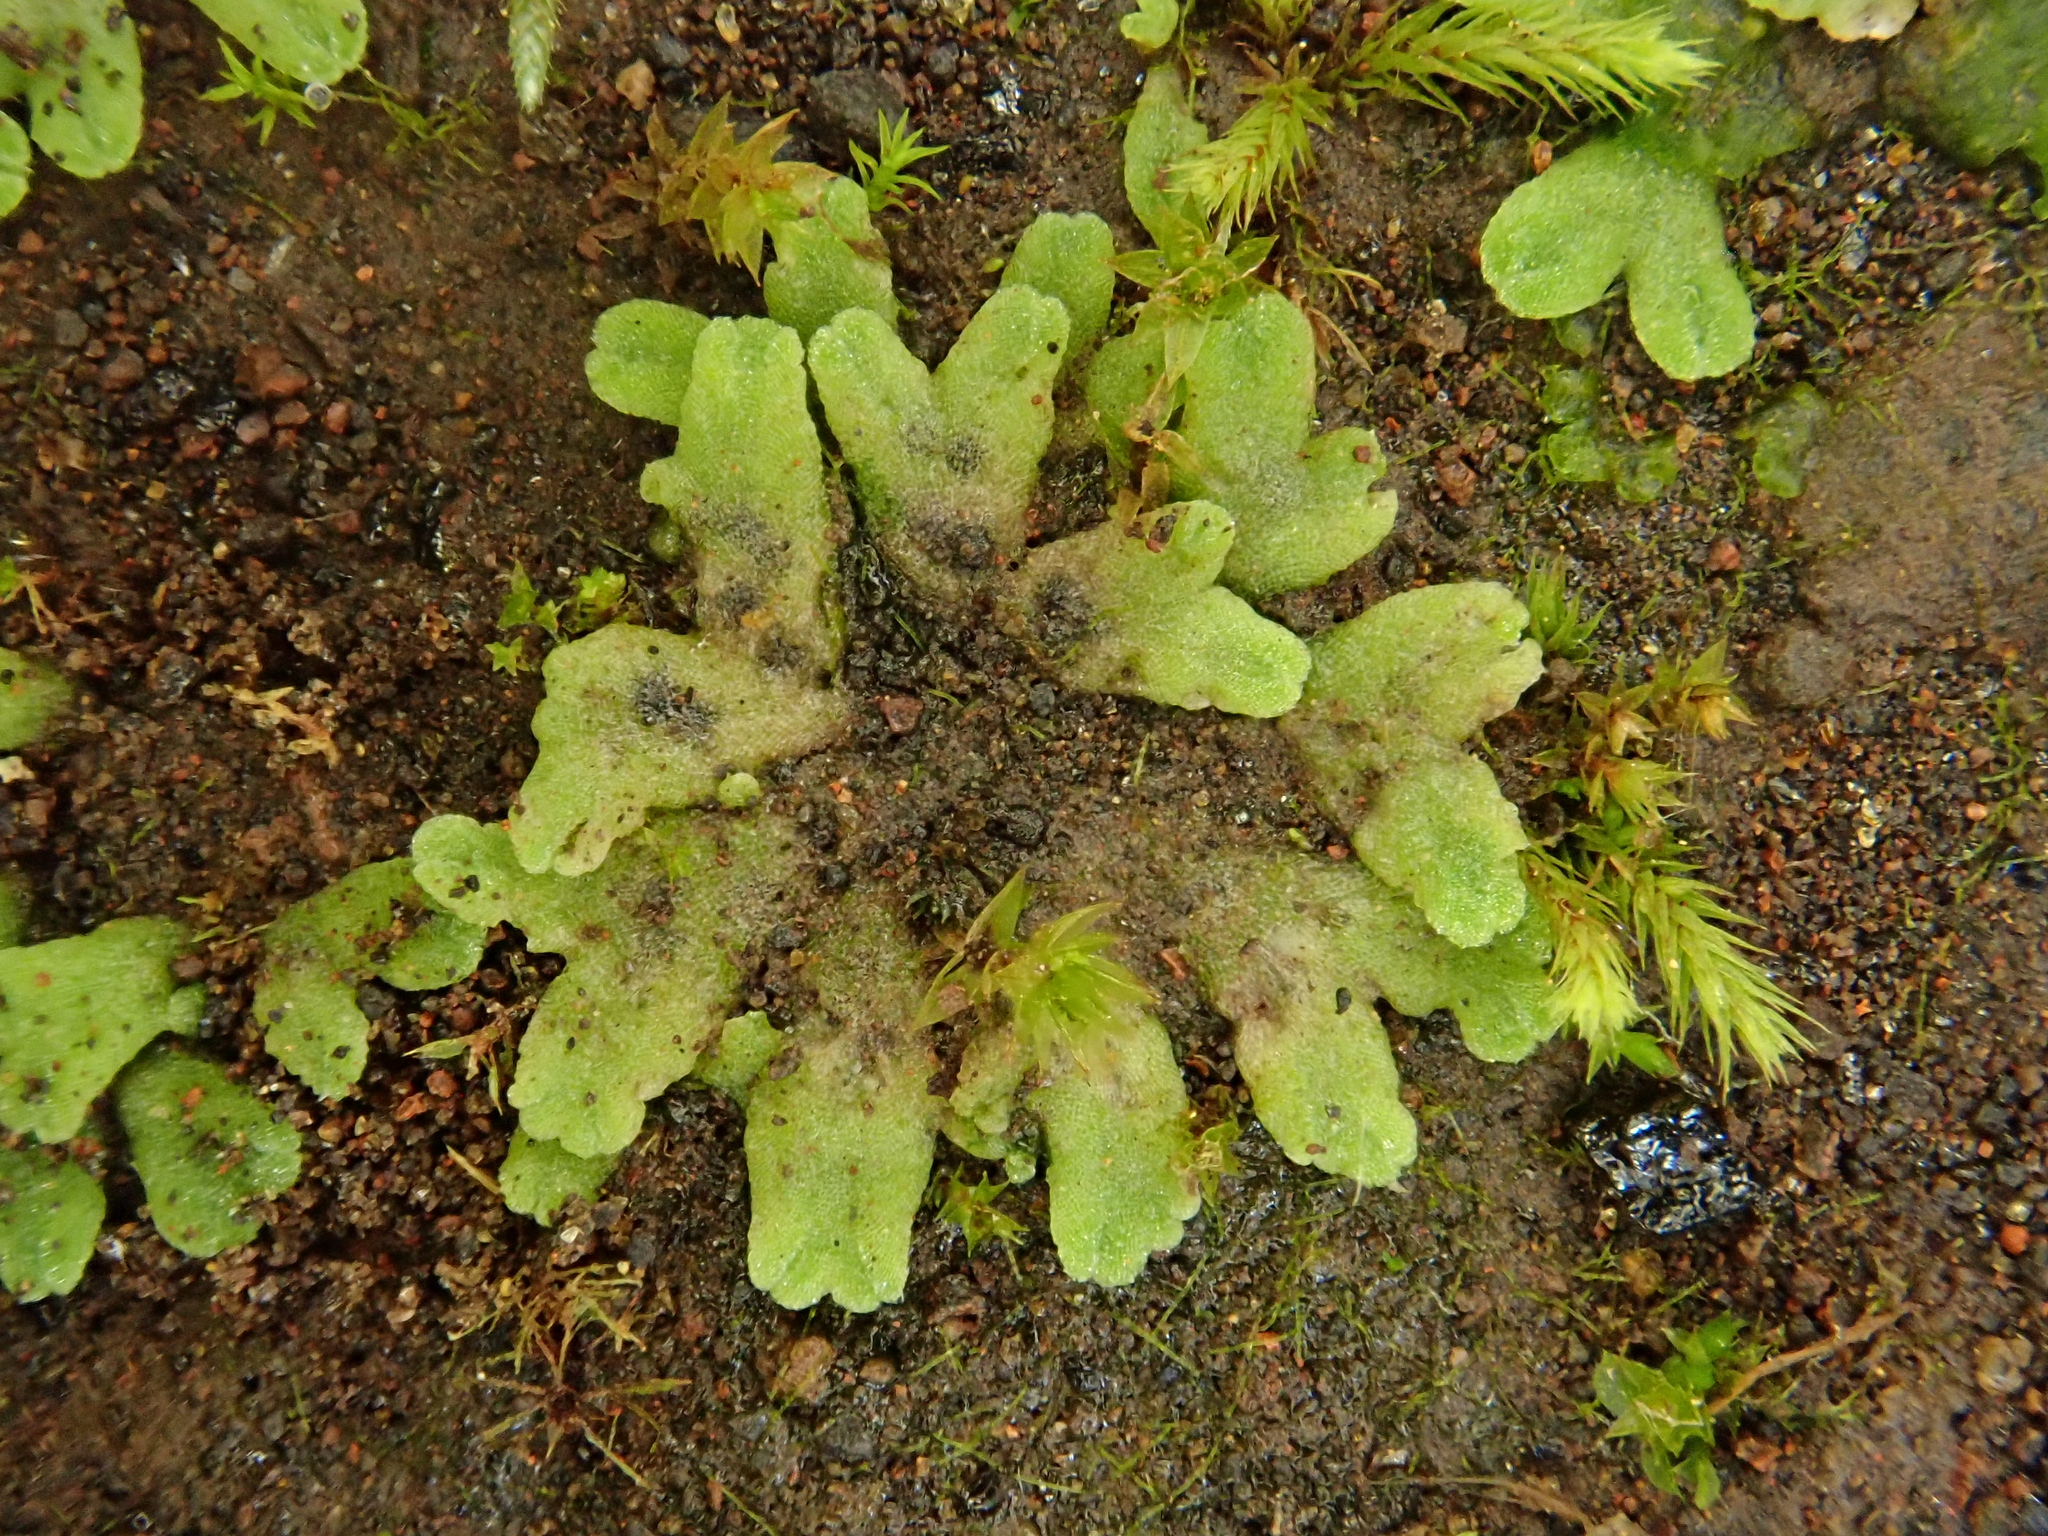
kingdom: Plantae
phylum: Marchantiophyta
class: Marchantiopsida
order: Marchantiales
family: Ricciaceae
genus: Riccia
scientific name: Riccia crozalsii
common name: Ciliate crystalwort
